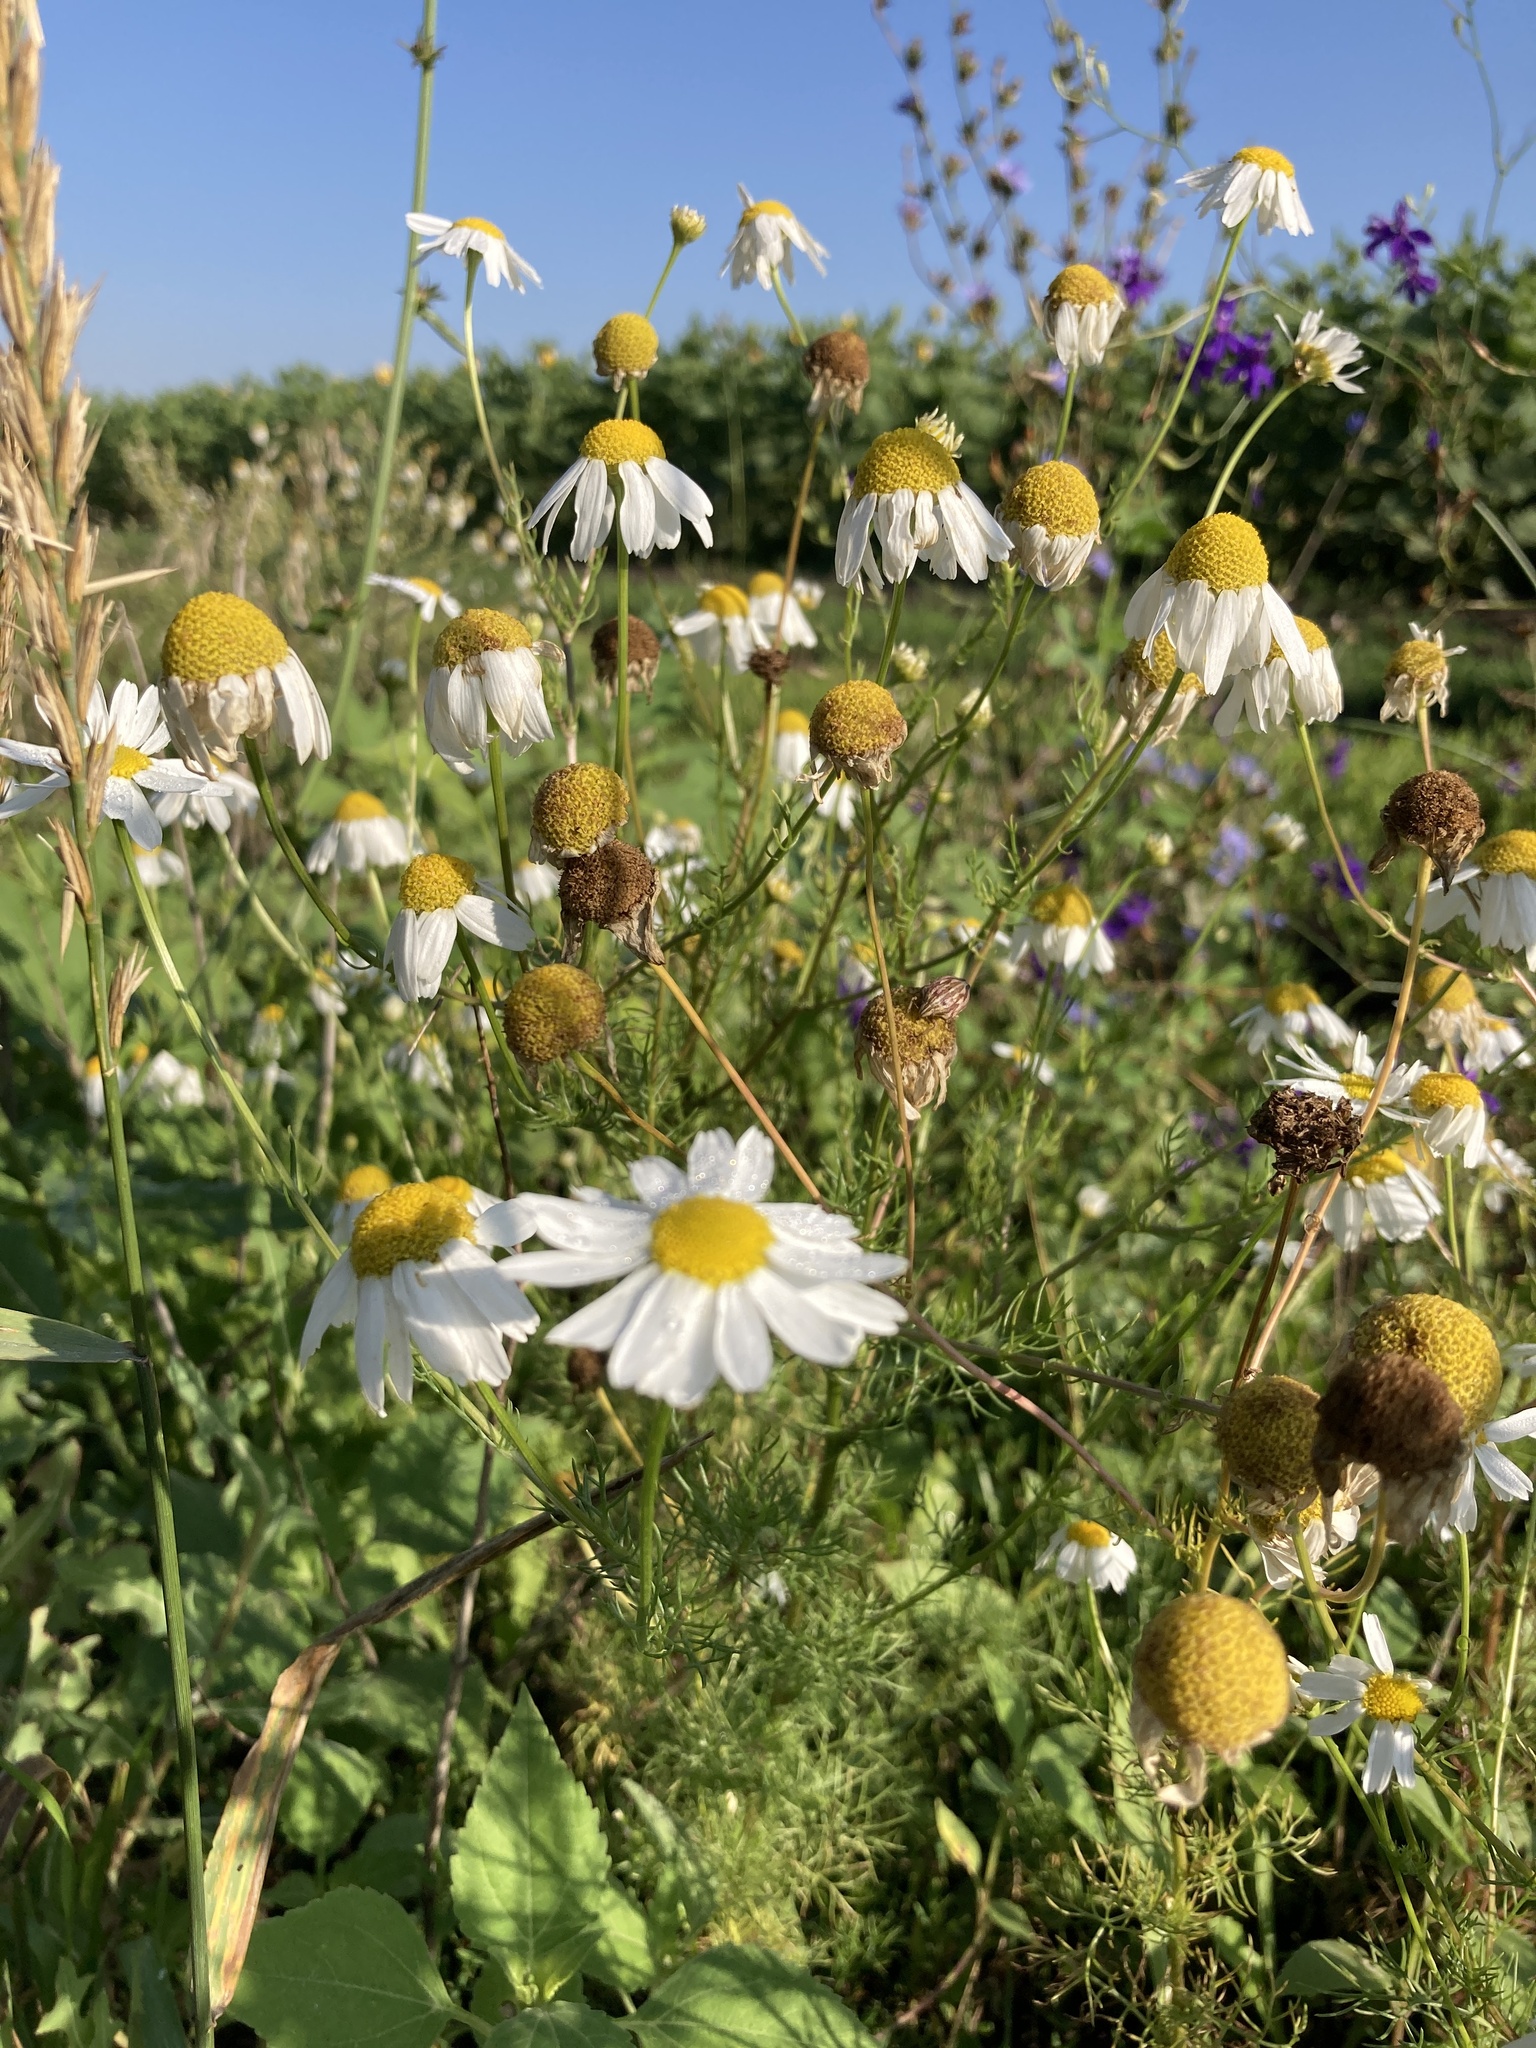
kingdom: Plantae
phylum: Tracheophyta
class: Magnoliopsida
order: Asterales
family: Asteraceae
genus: Tripleurospermum
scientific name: Tripleurospermum inodorum
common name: Scentless mayweed
